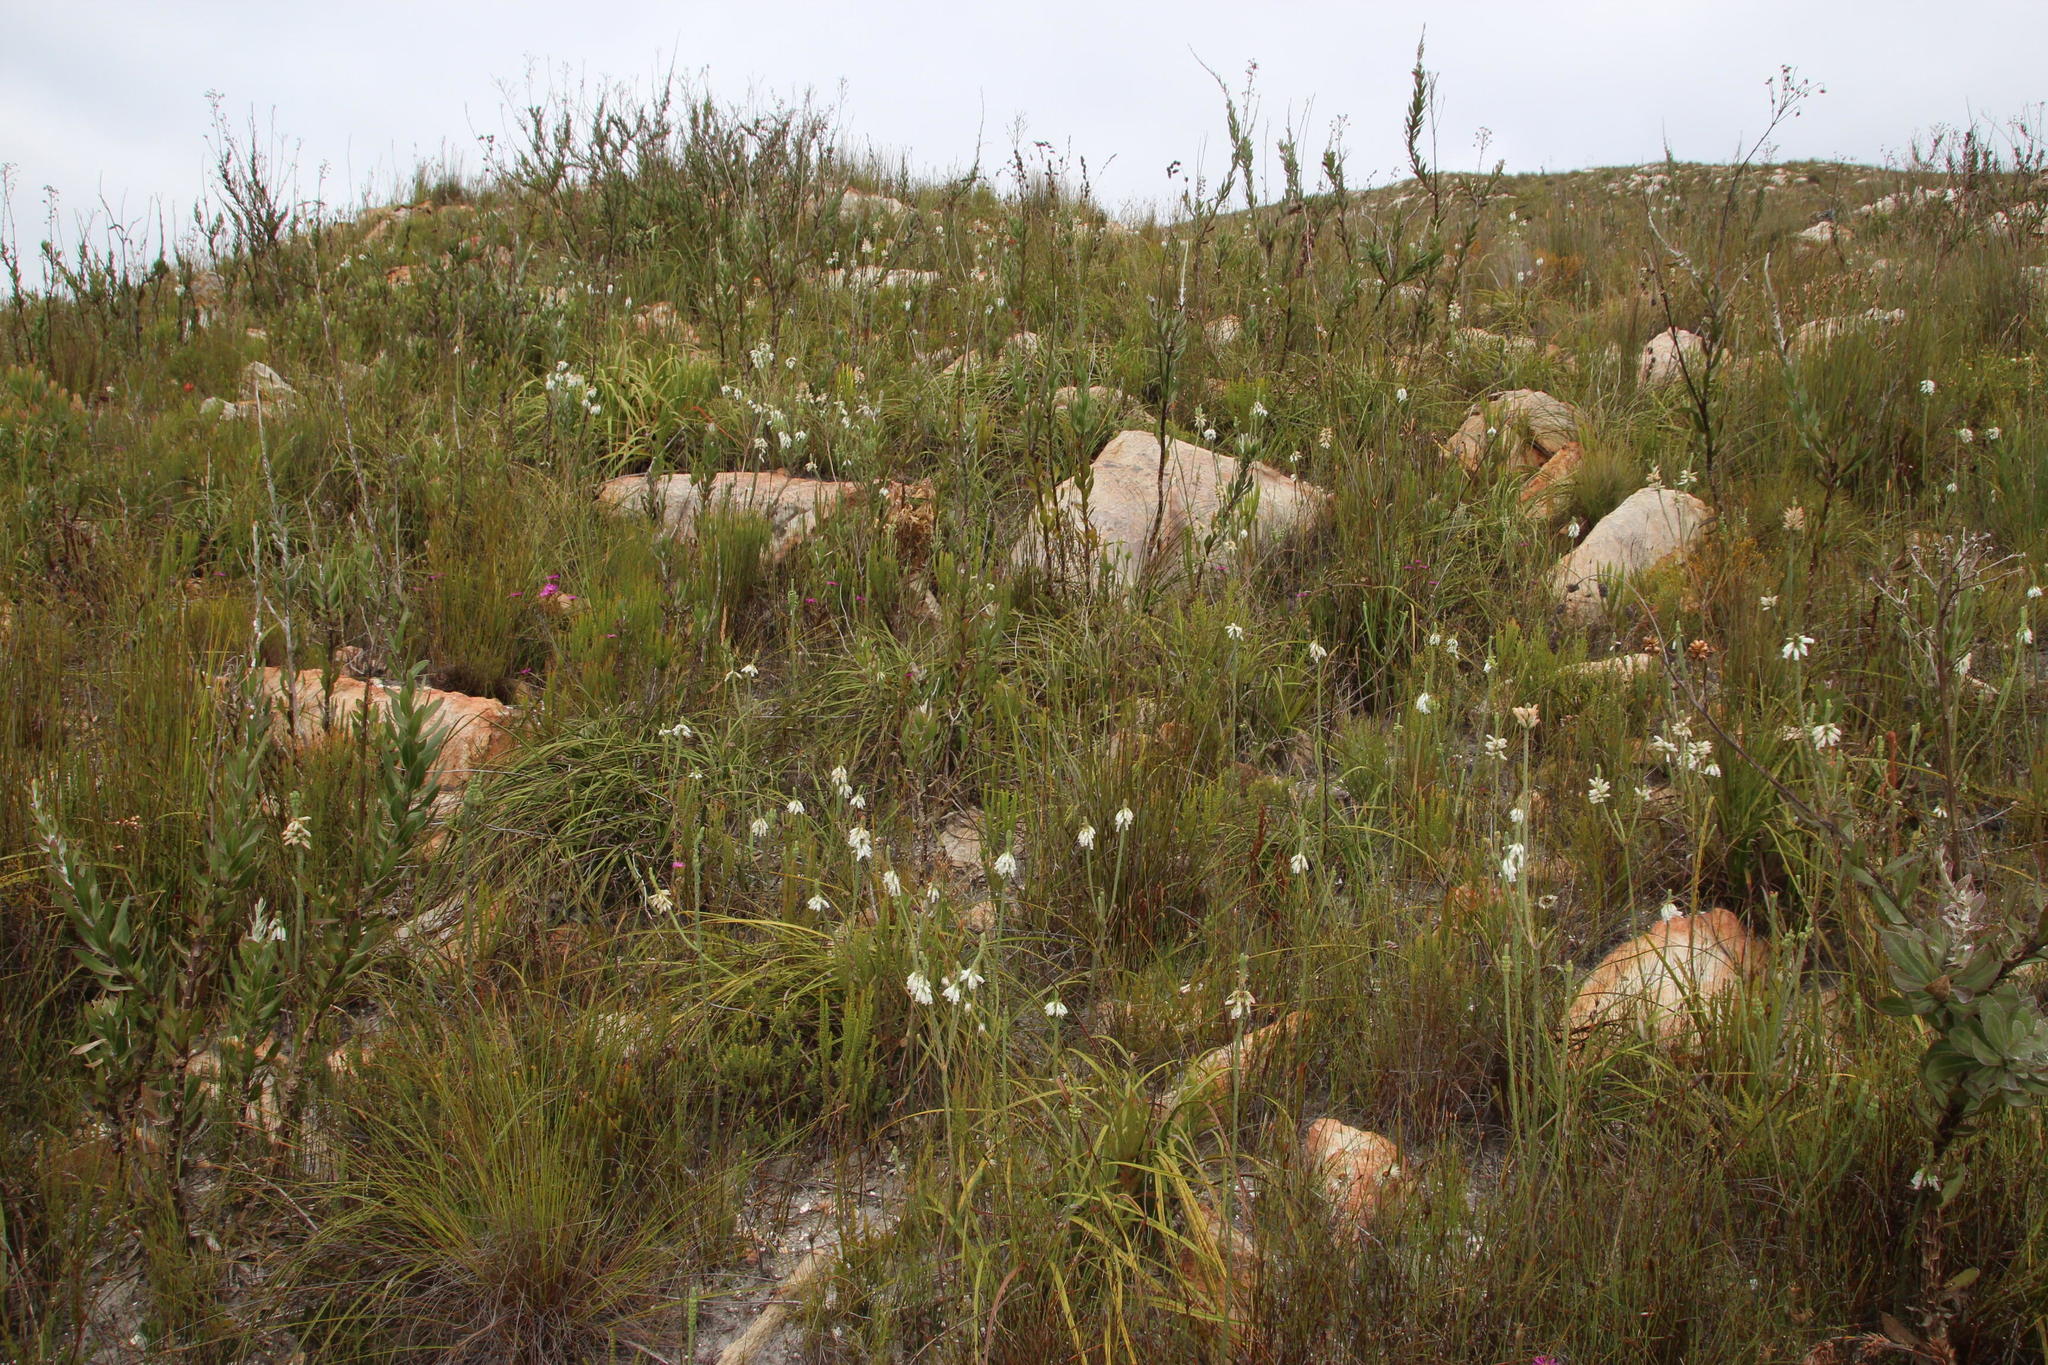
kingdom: Plantae
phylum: Tracheophyta
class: Magnoliopsida
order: Ericales
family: Ericaceae
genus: Erica
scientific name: Erica viscaria
